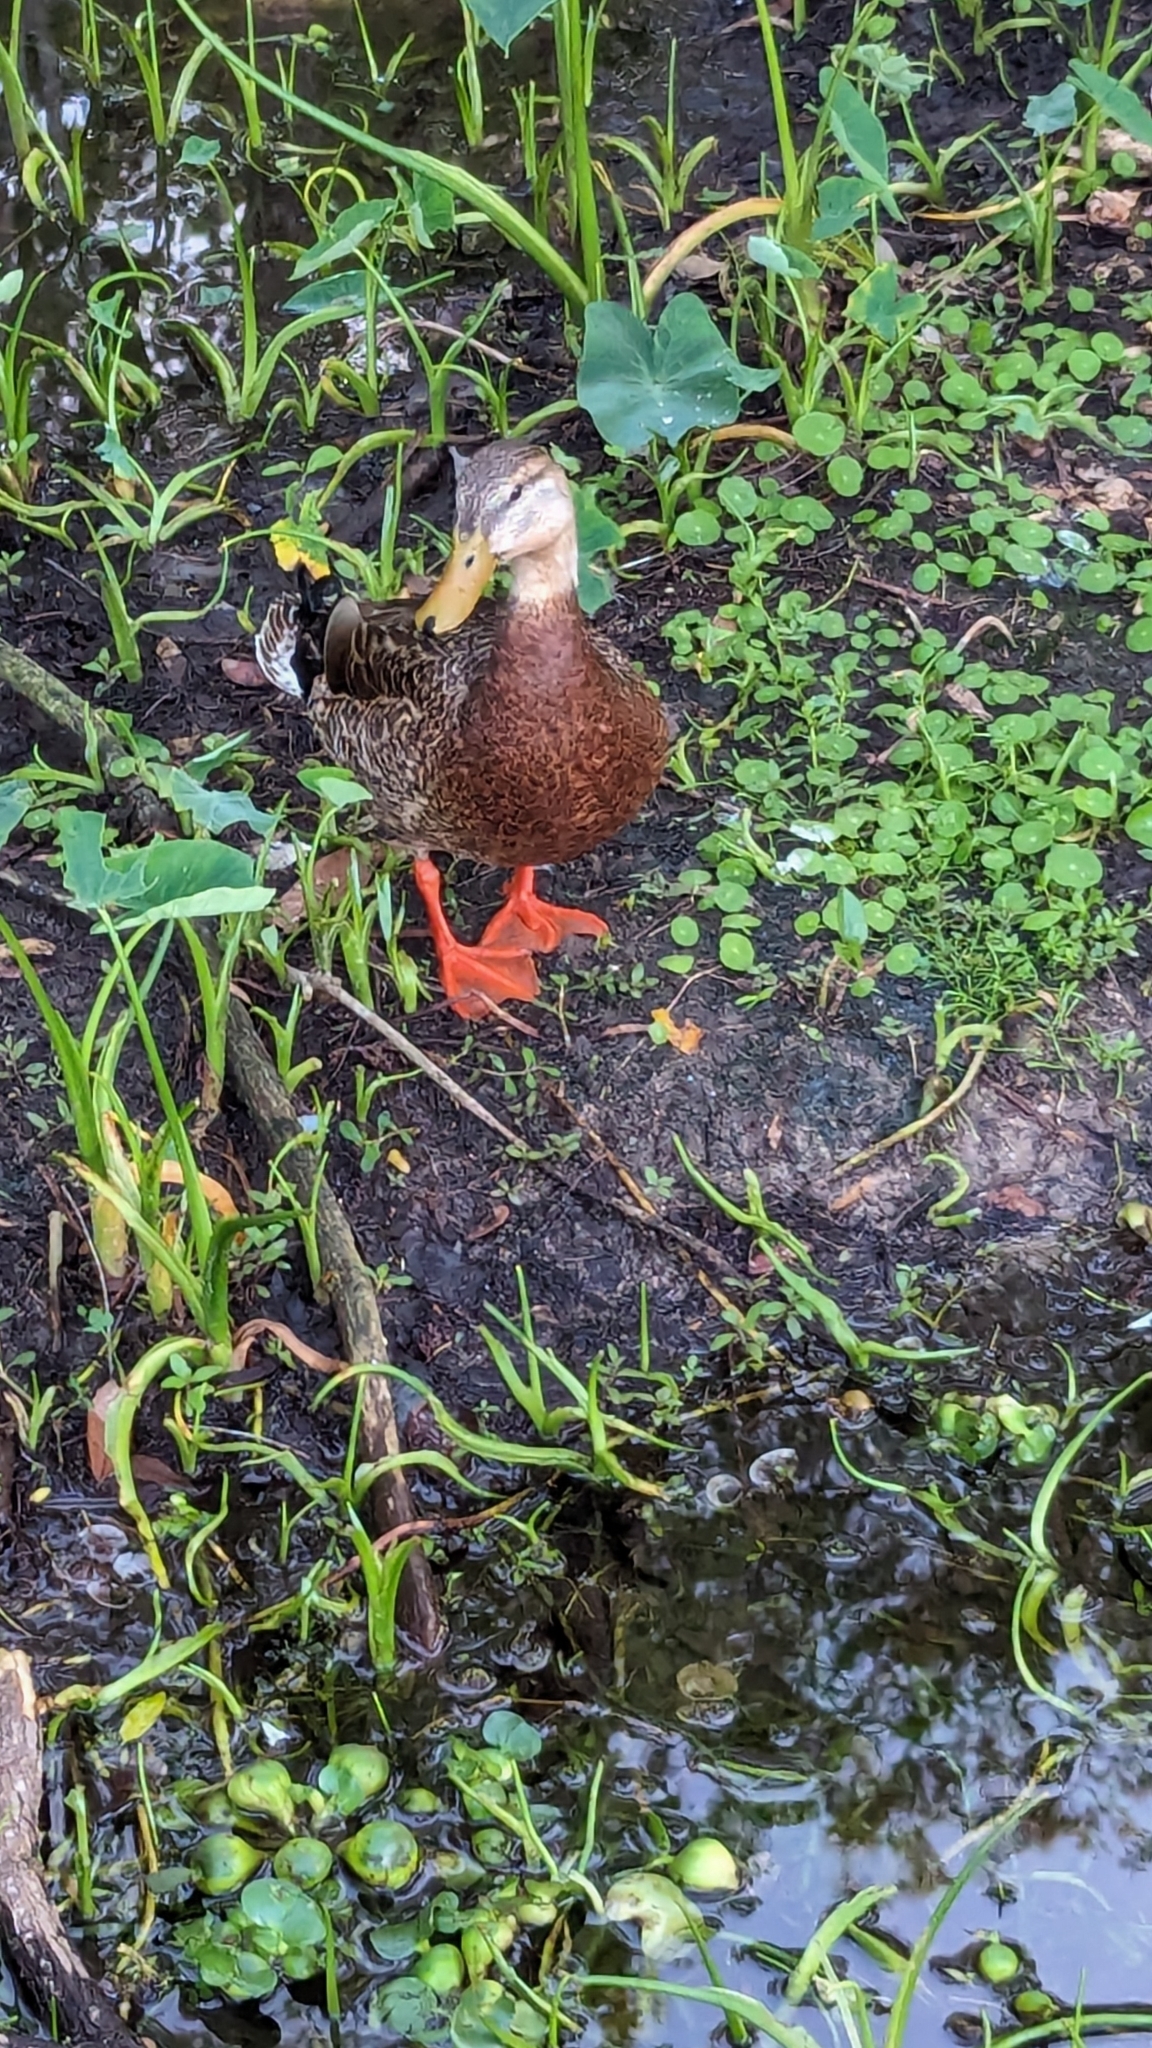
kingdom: Animalia
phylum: Chordata
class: Aves
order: Anseriformes
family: Anatidae
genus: Anas
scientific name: Anas platyrhynchos
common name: Mallard
